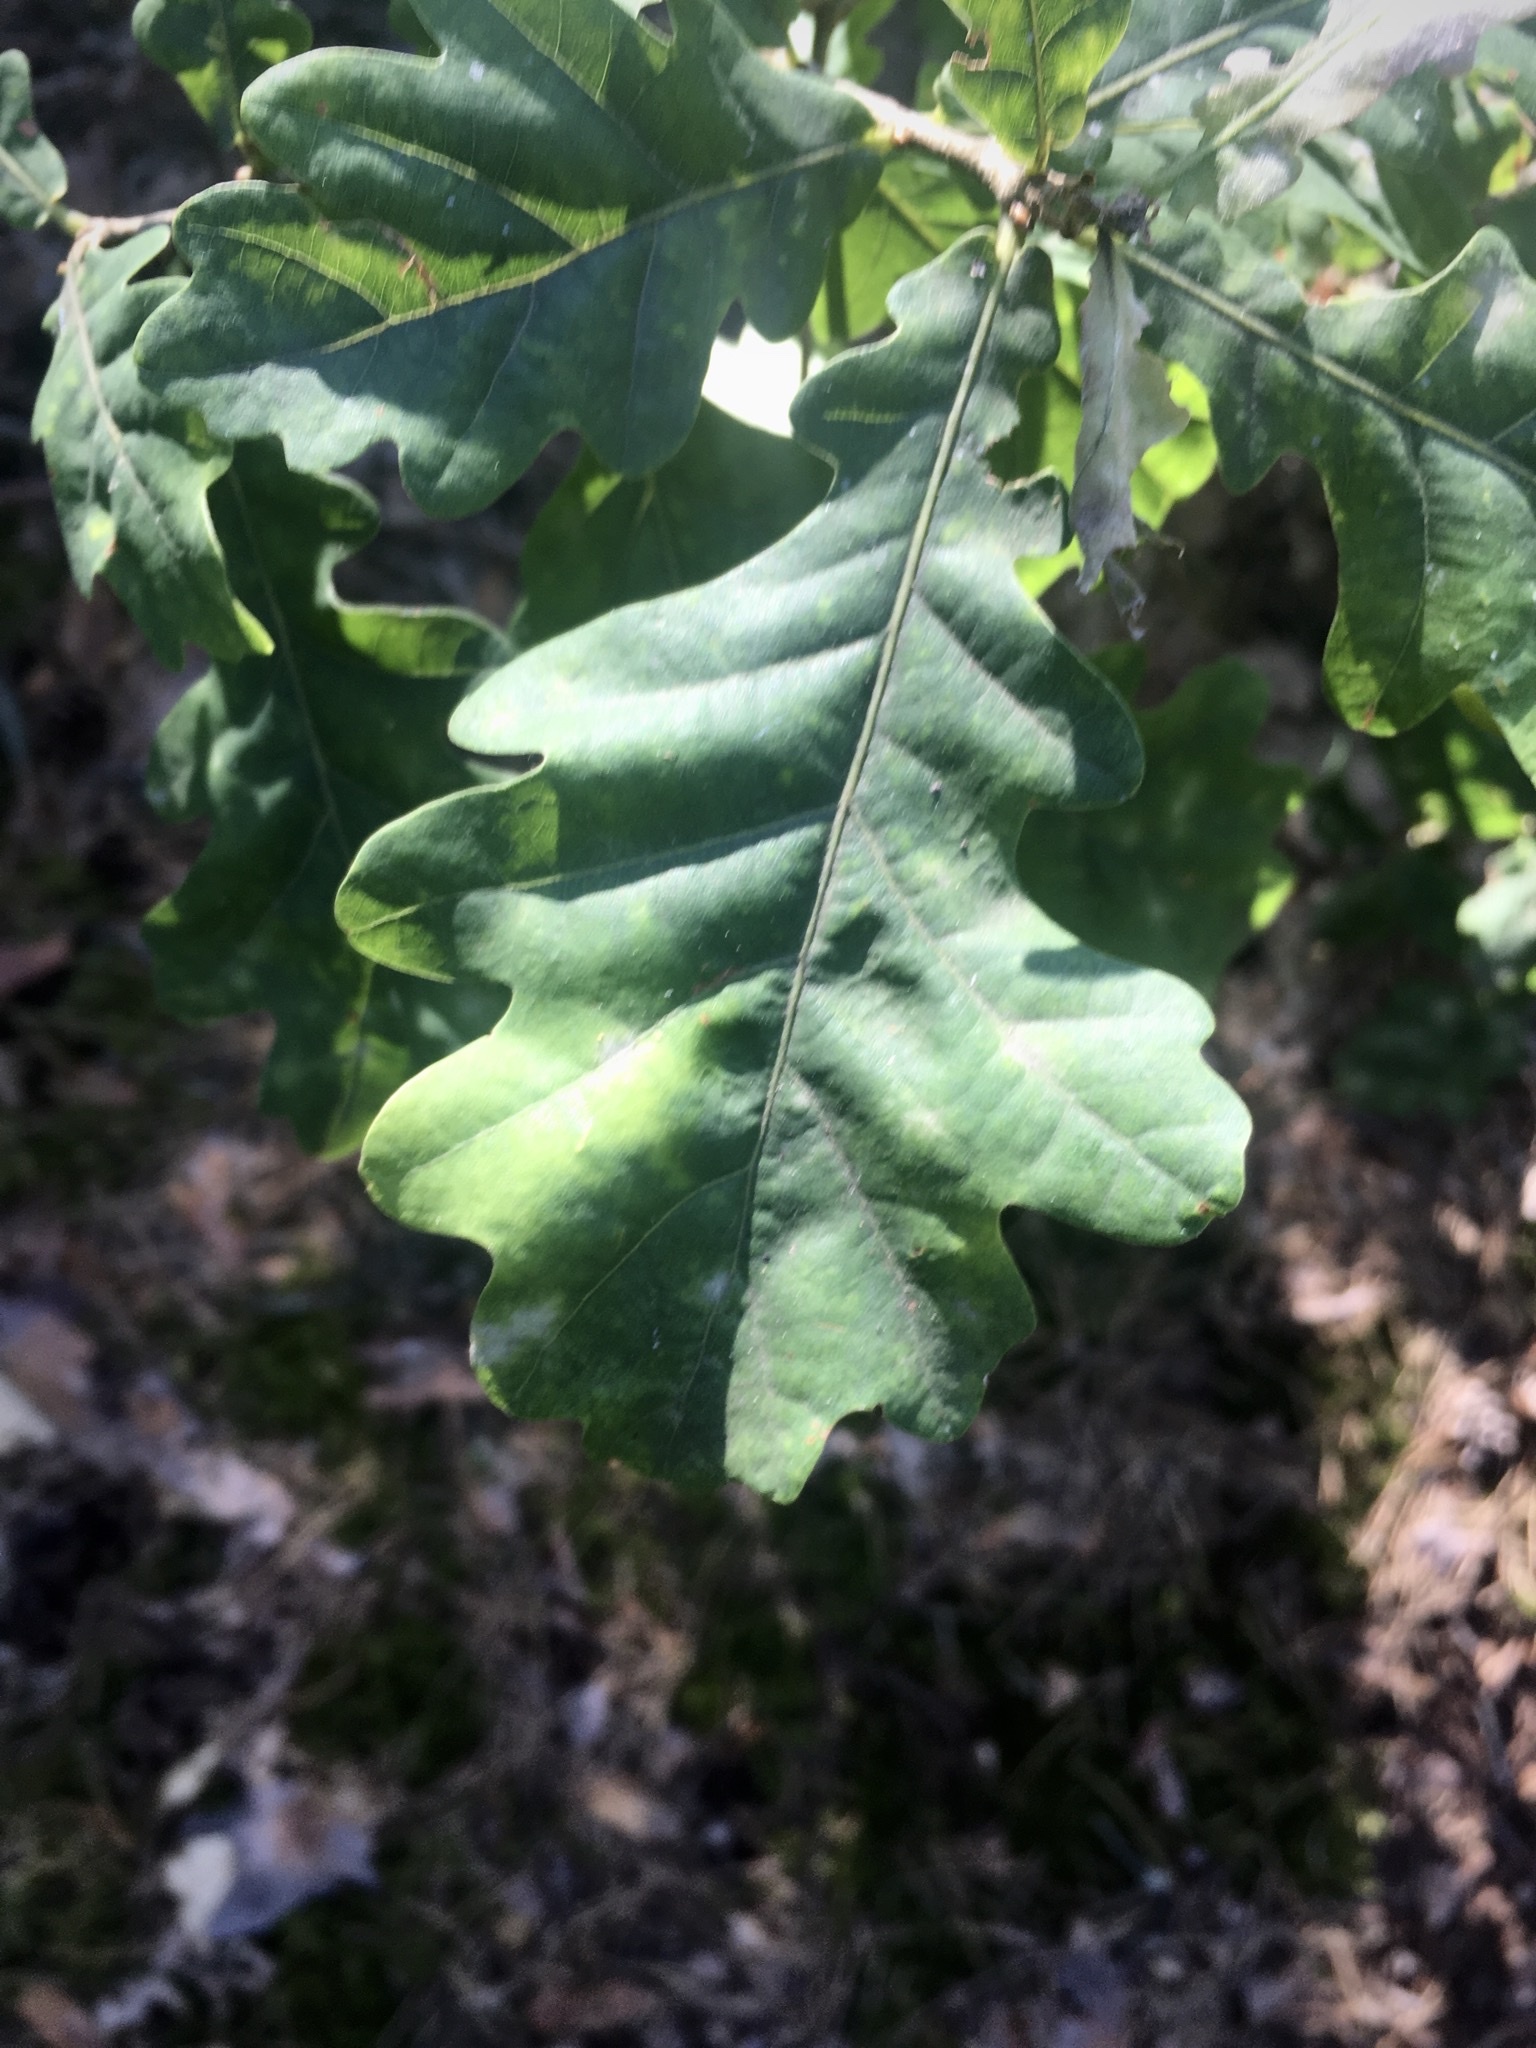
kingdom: Animalia
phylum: Arthropoda
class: Insecta
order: Hymenoptera
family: Cynipidae
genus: Cynips
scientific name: Cynips quercusfolii
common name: Cherry gall
